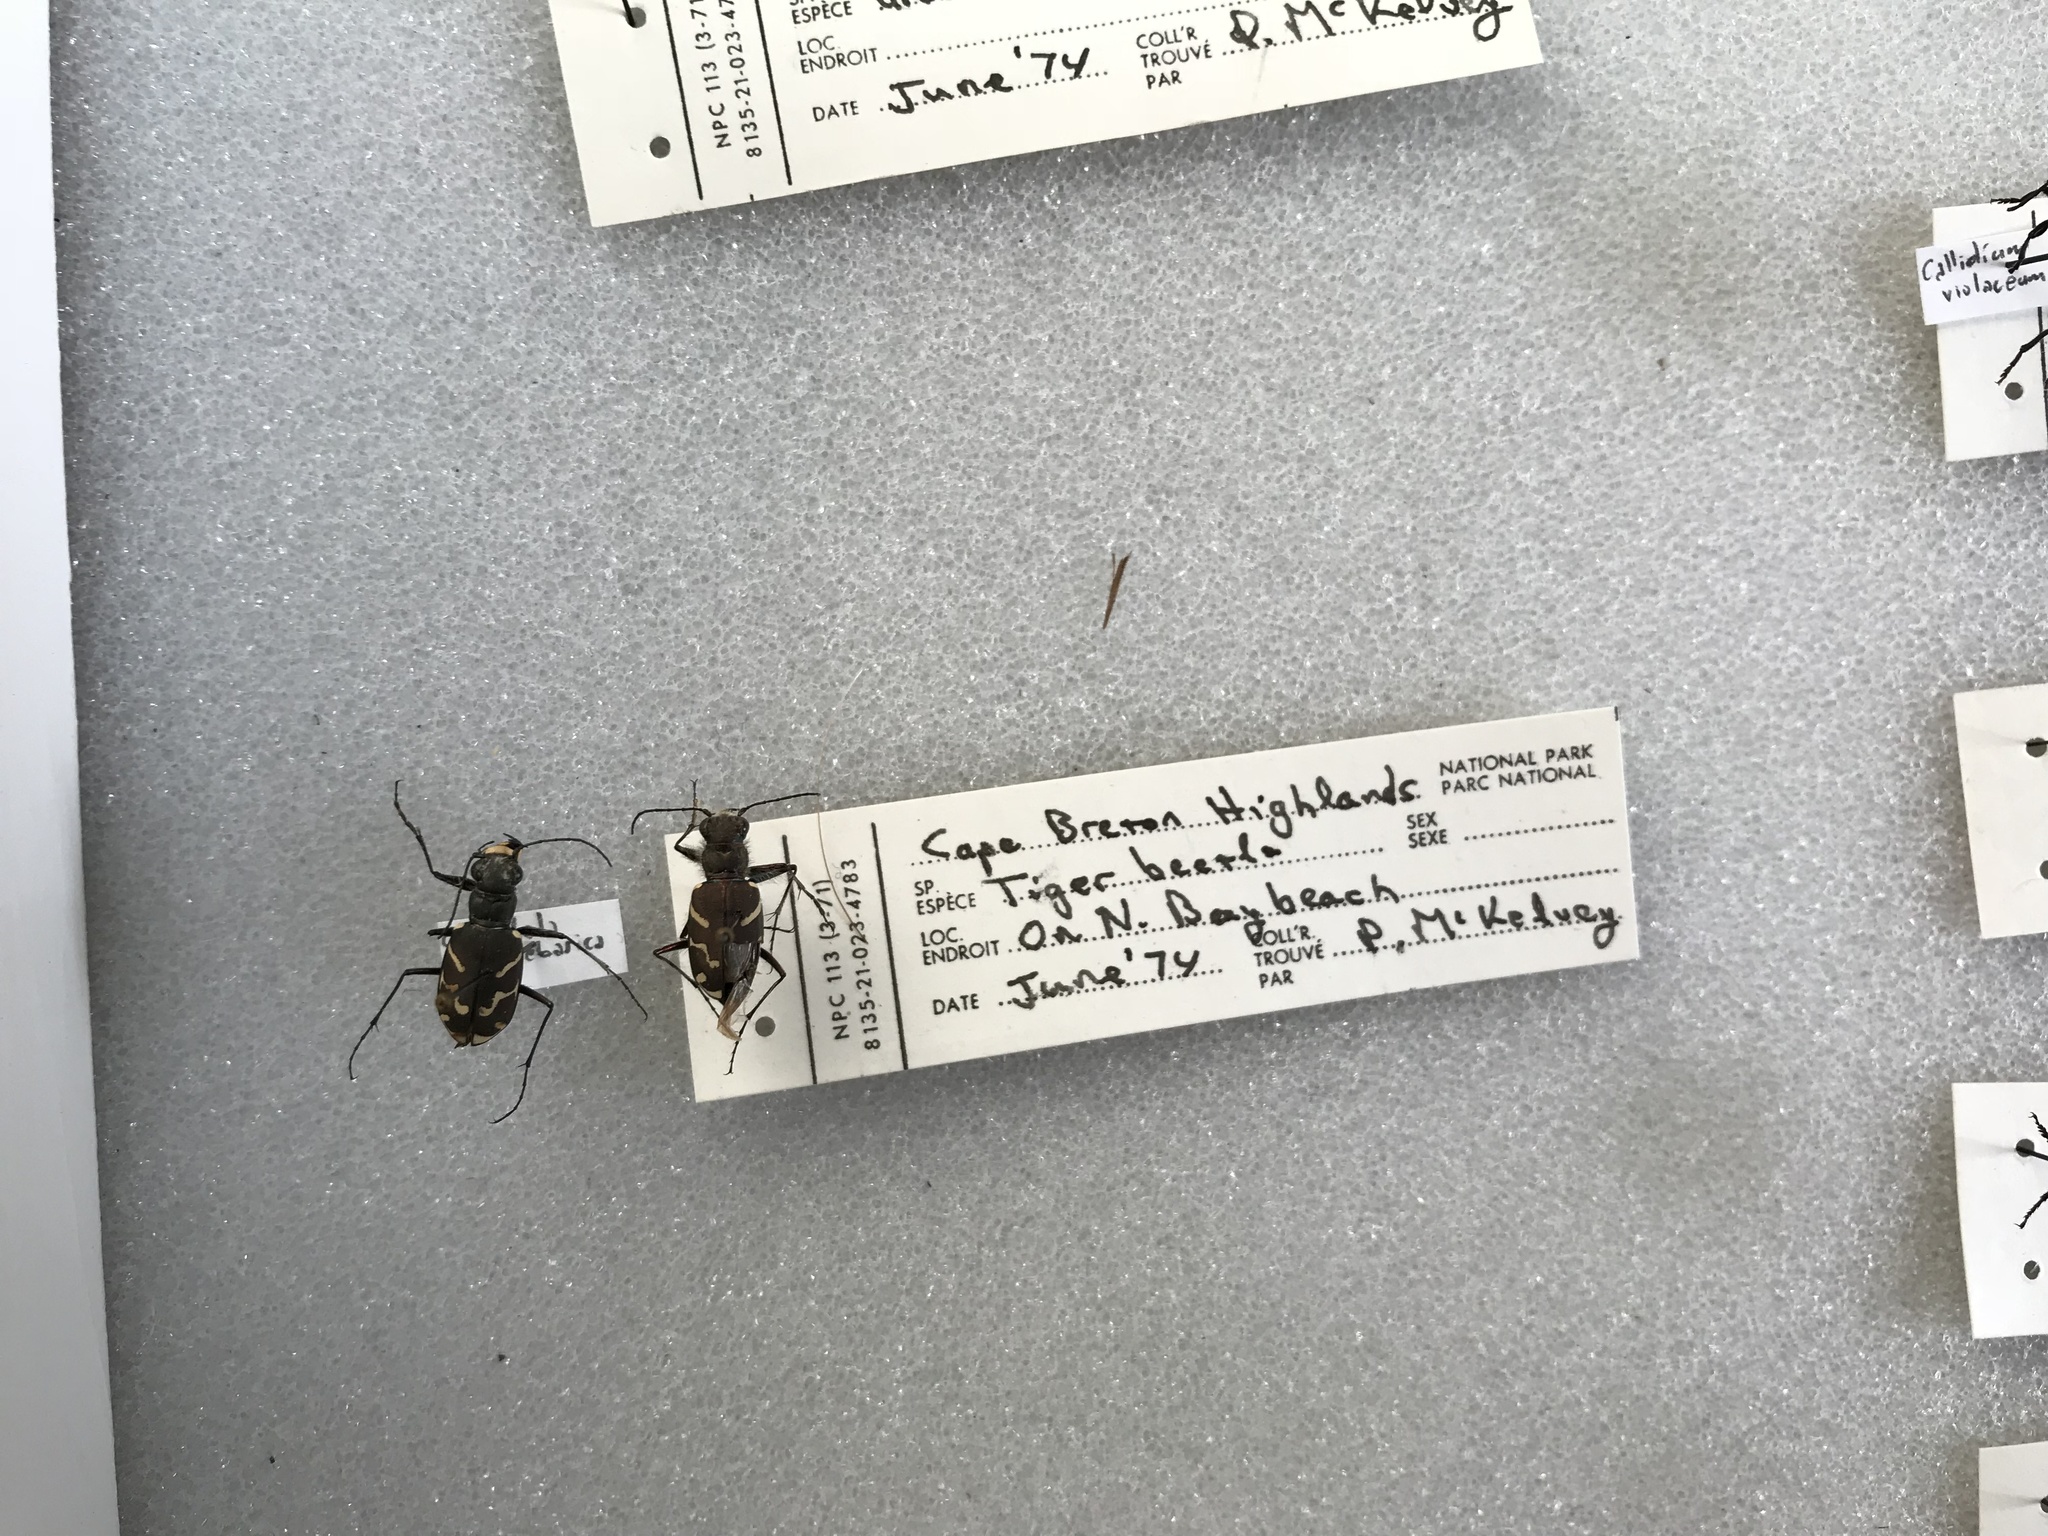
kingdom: Animalia
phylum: Arthropoda
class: Insecta
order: Coleoptera
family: Carabidae
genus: Cicindela
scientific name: Cicindela tranquebarica
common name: Oblique-lined tiger beetle
